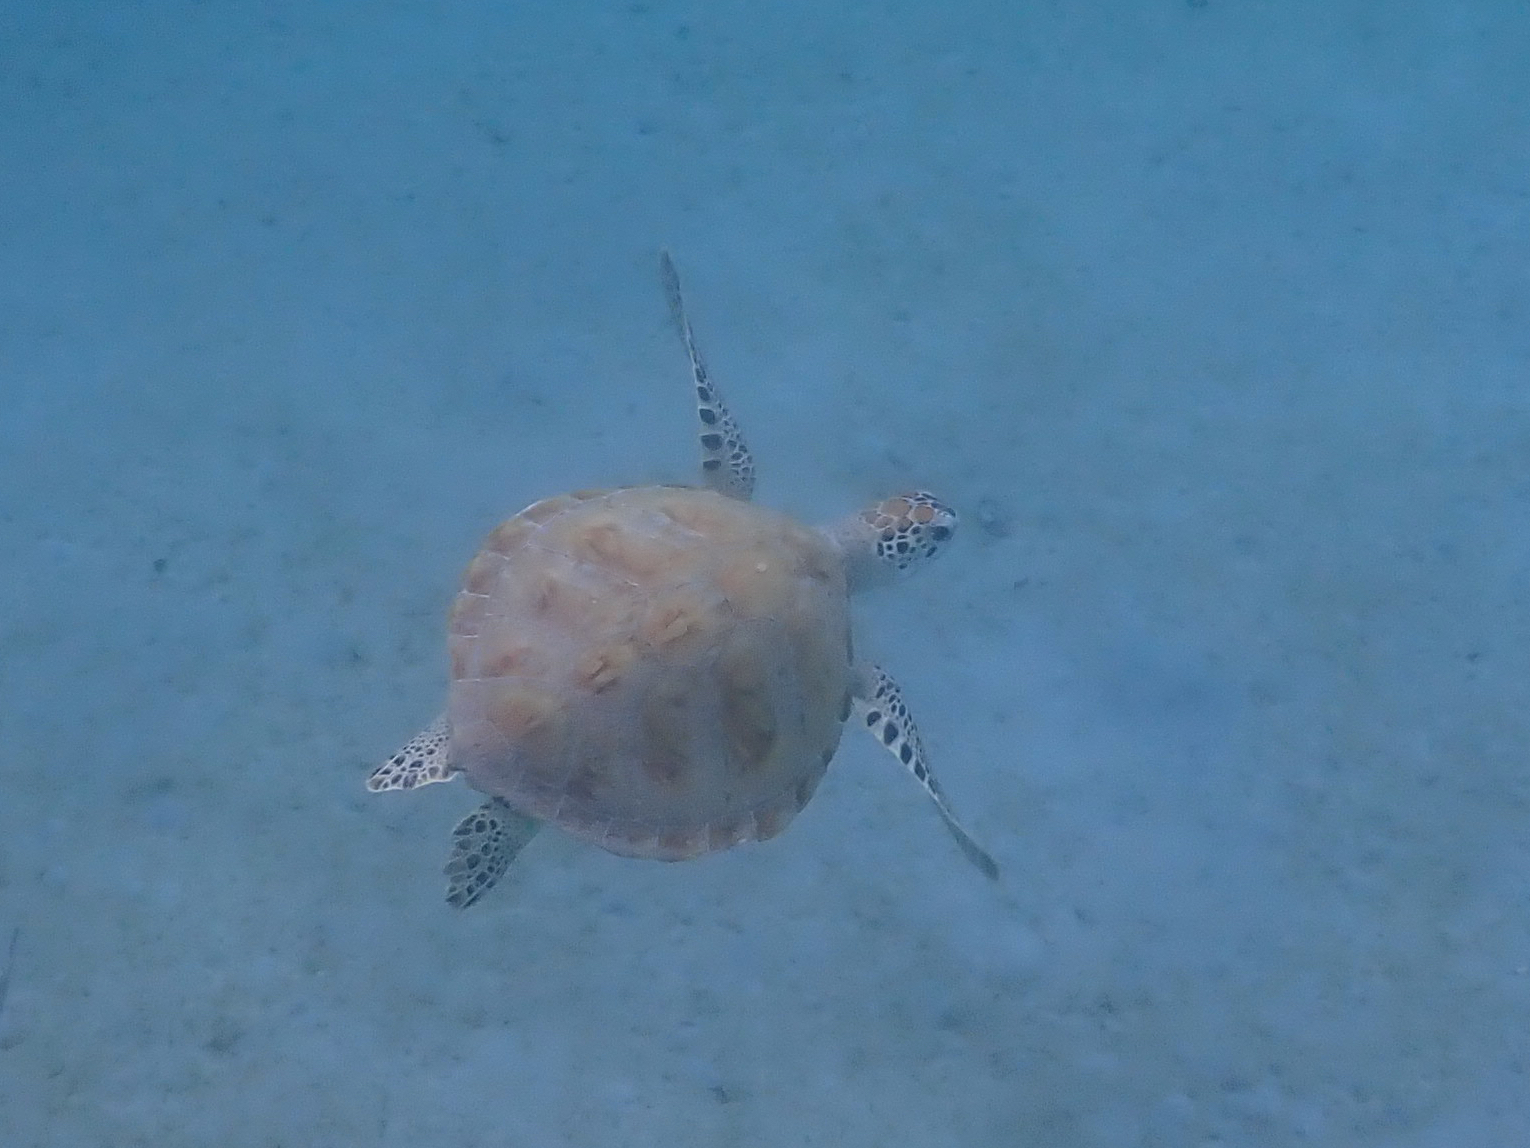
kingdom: Animalia
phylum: Chordata
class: Testudines
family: Cheloniidae
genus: Chelonia
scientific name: Chelonia mydas
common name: Green turtle
